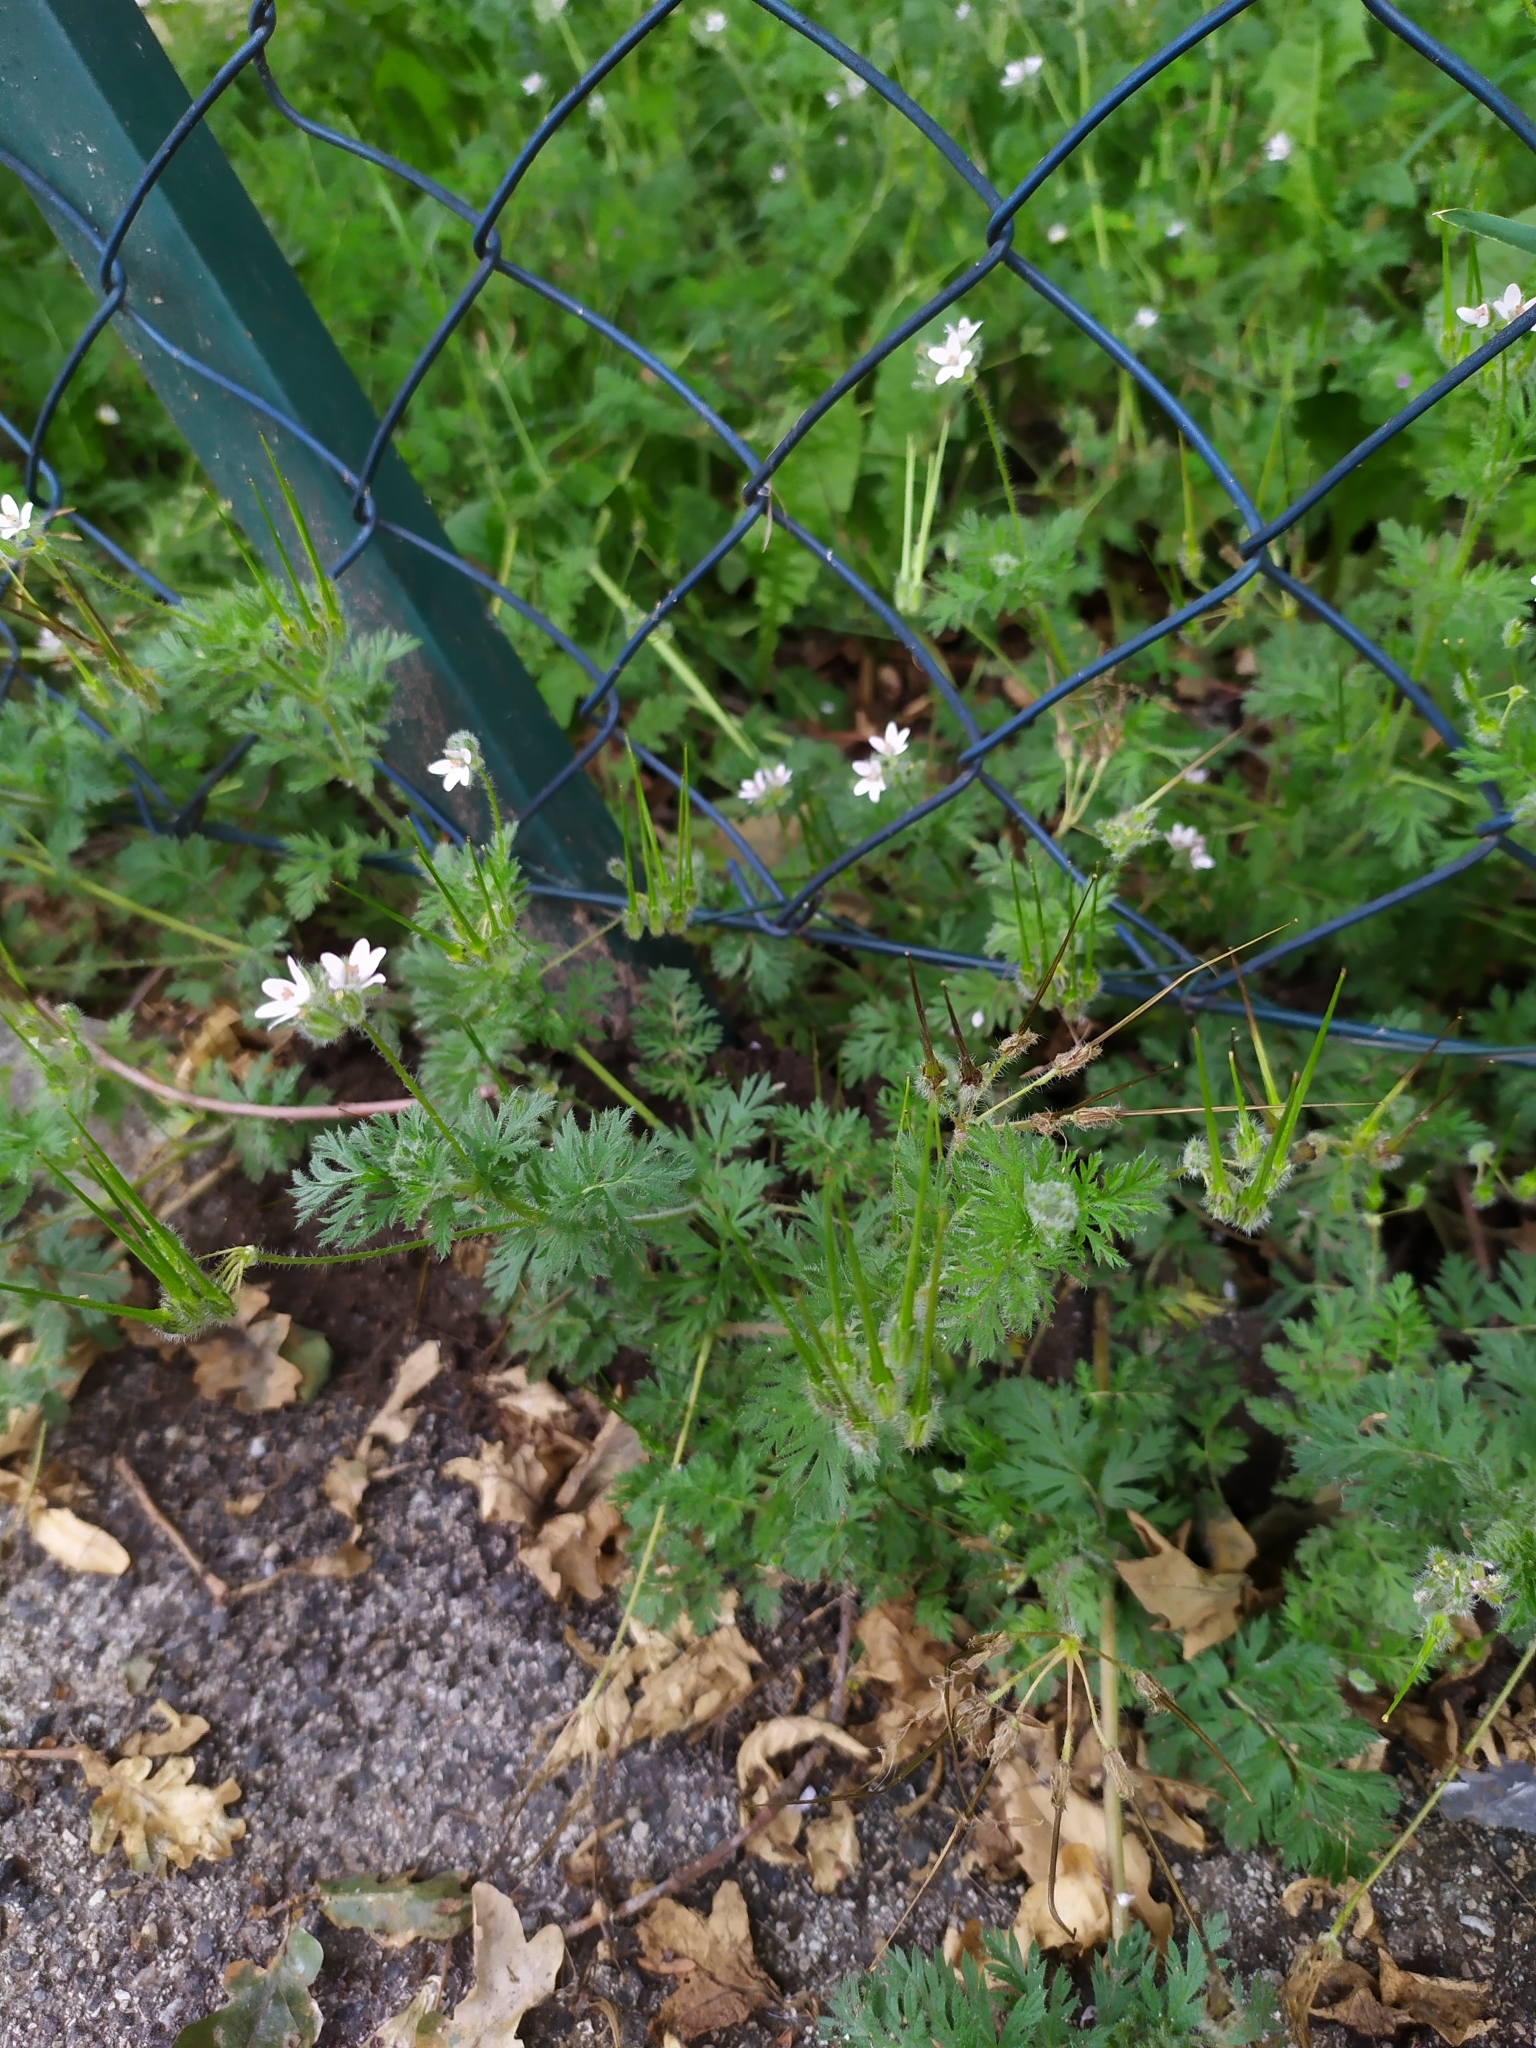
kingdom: Plantae
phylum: Tracheophyta
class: Magnoliopsida
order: Geraniales
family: Geraniaceae
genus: Erodium
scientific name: Erodium cicutarium
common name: Common stork's-bill
